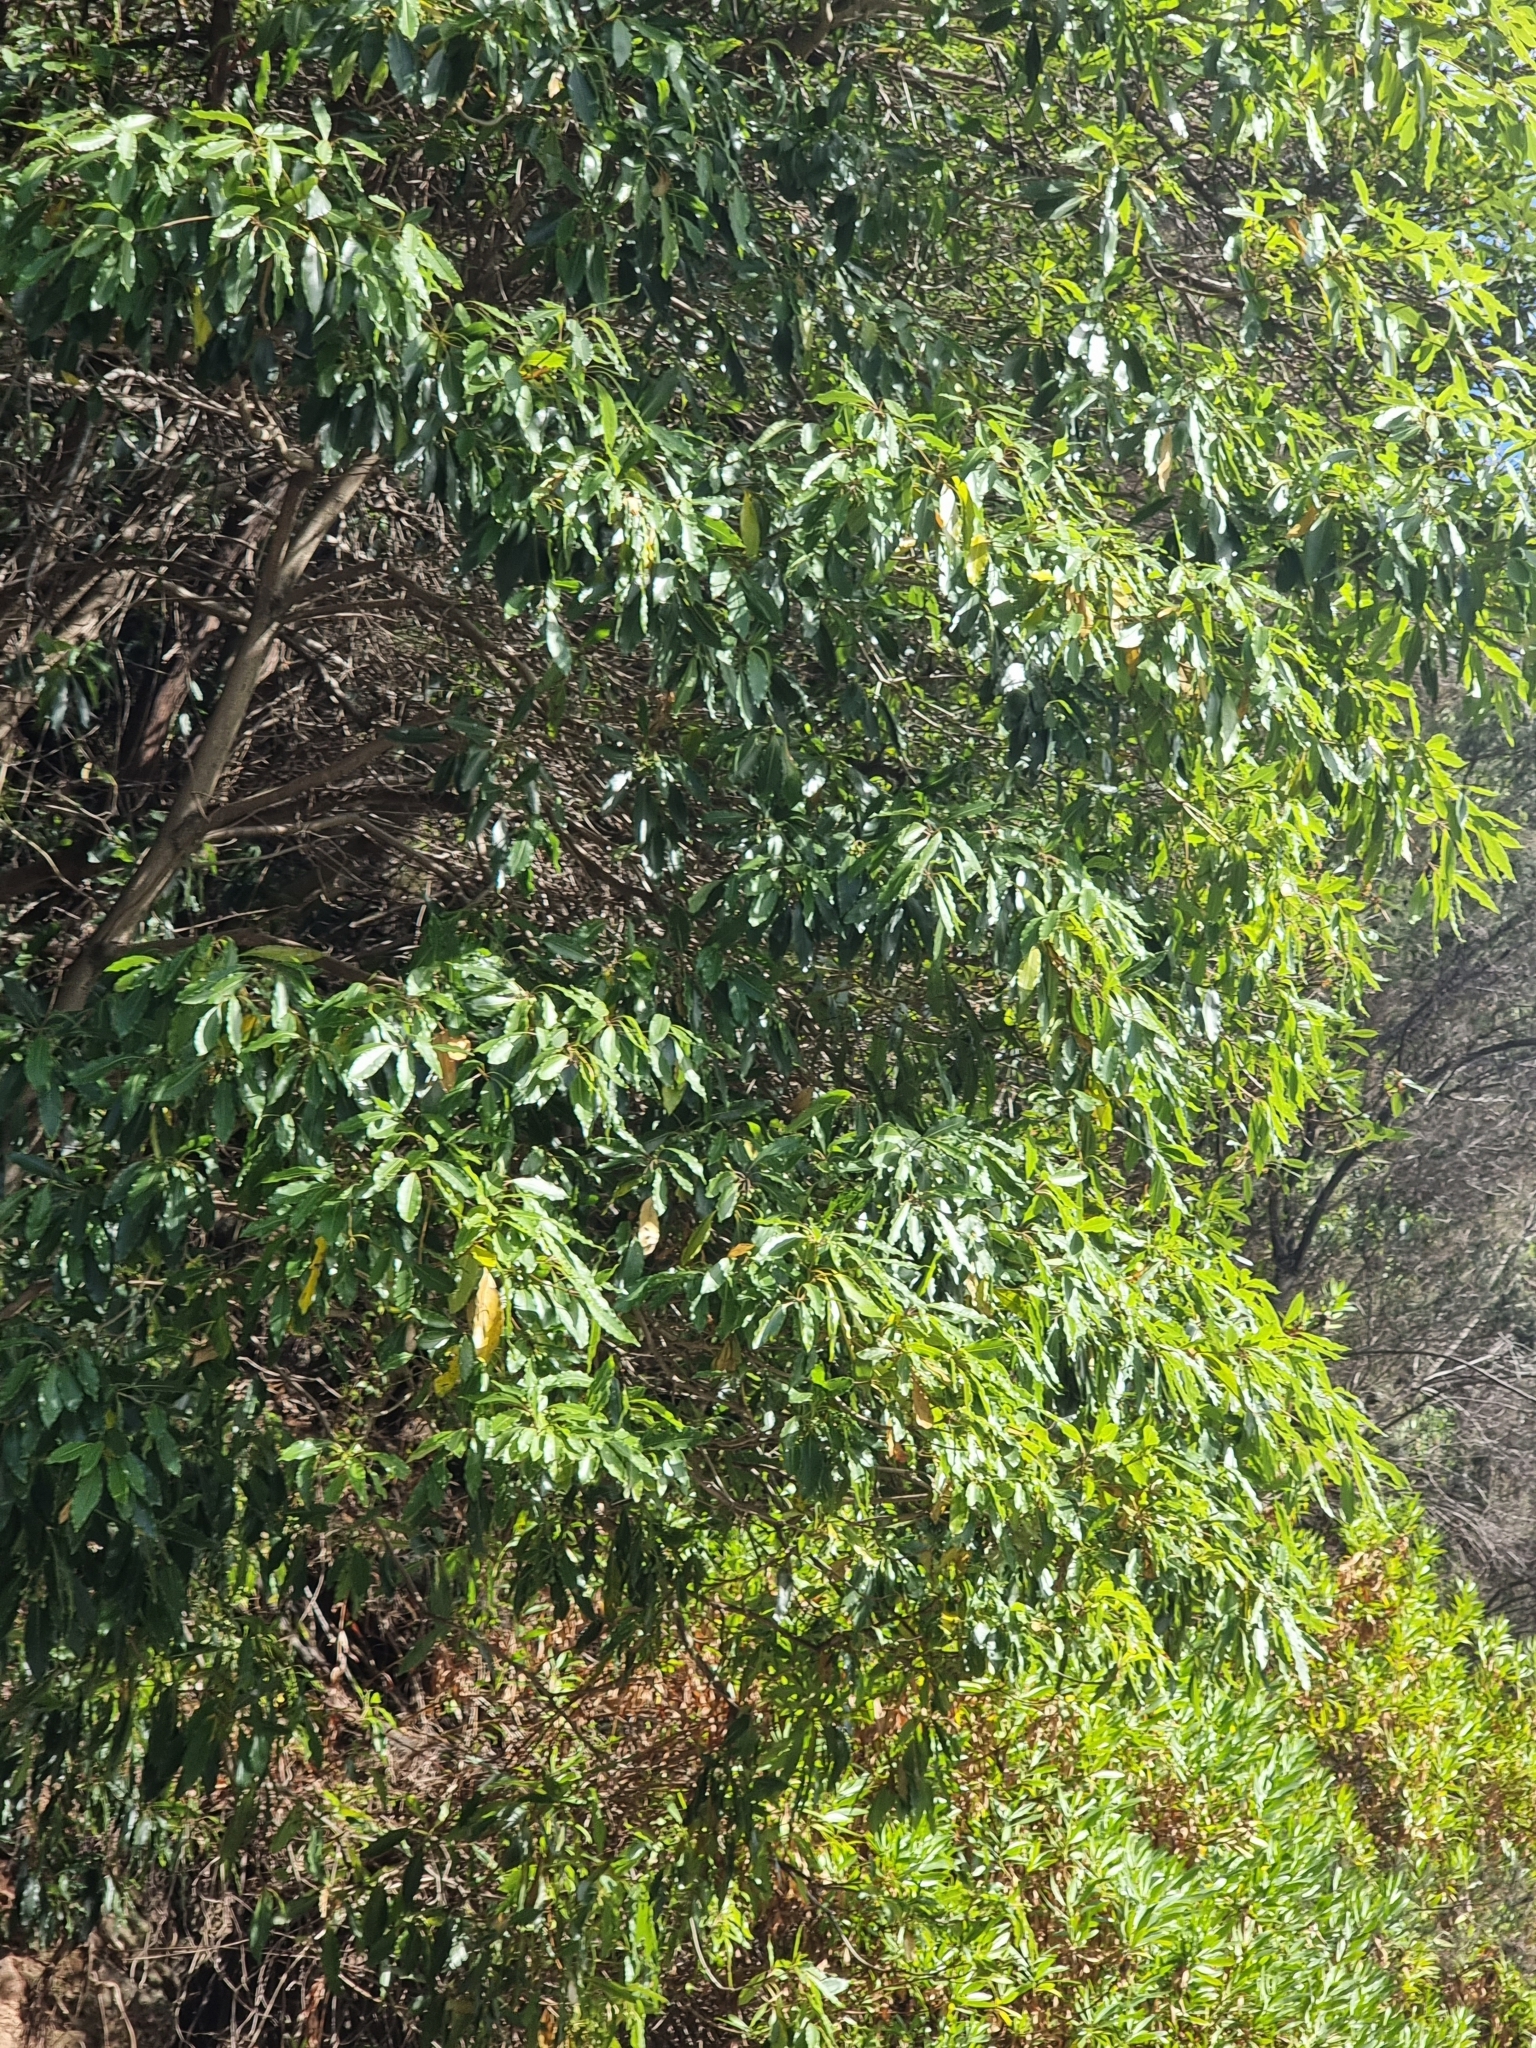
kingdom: Plantae
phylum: Tracheophyta
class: Magnoliopsida
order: Apiales
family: Pittosporaceae
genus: Pittosporum
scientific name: Pittosporum undulatum
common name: Australian cheesewood
